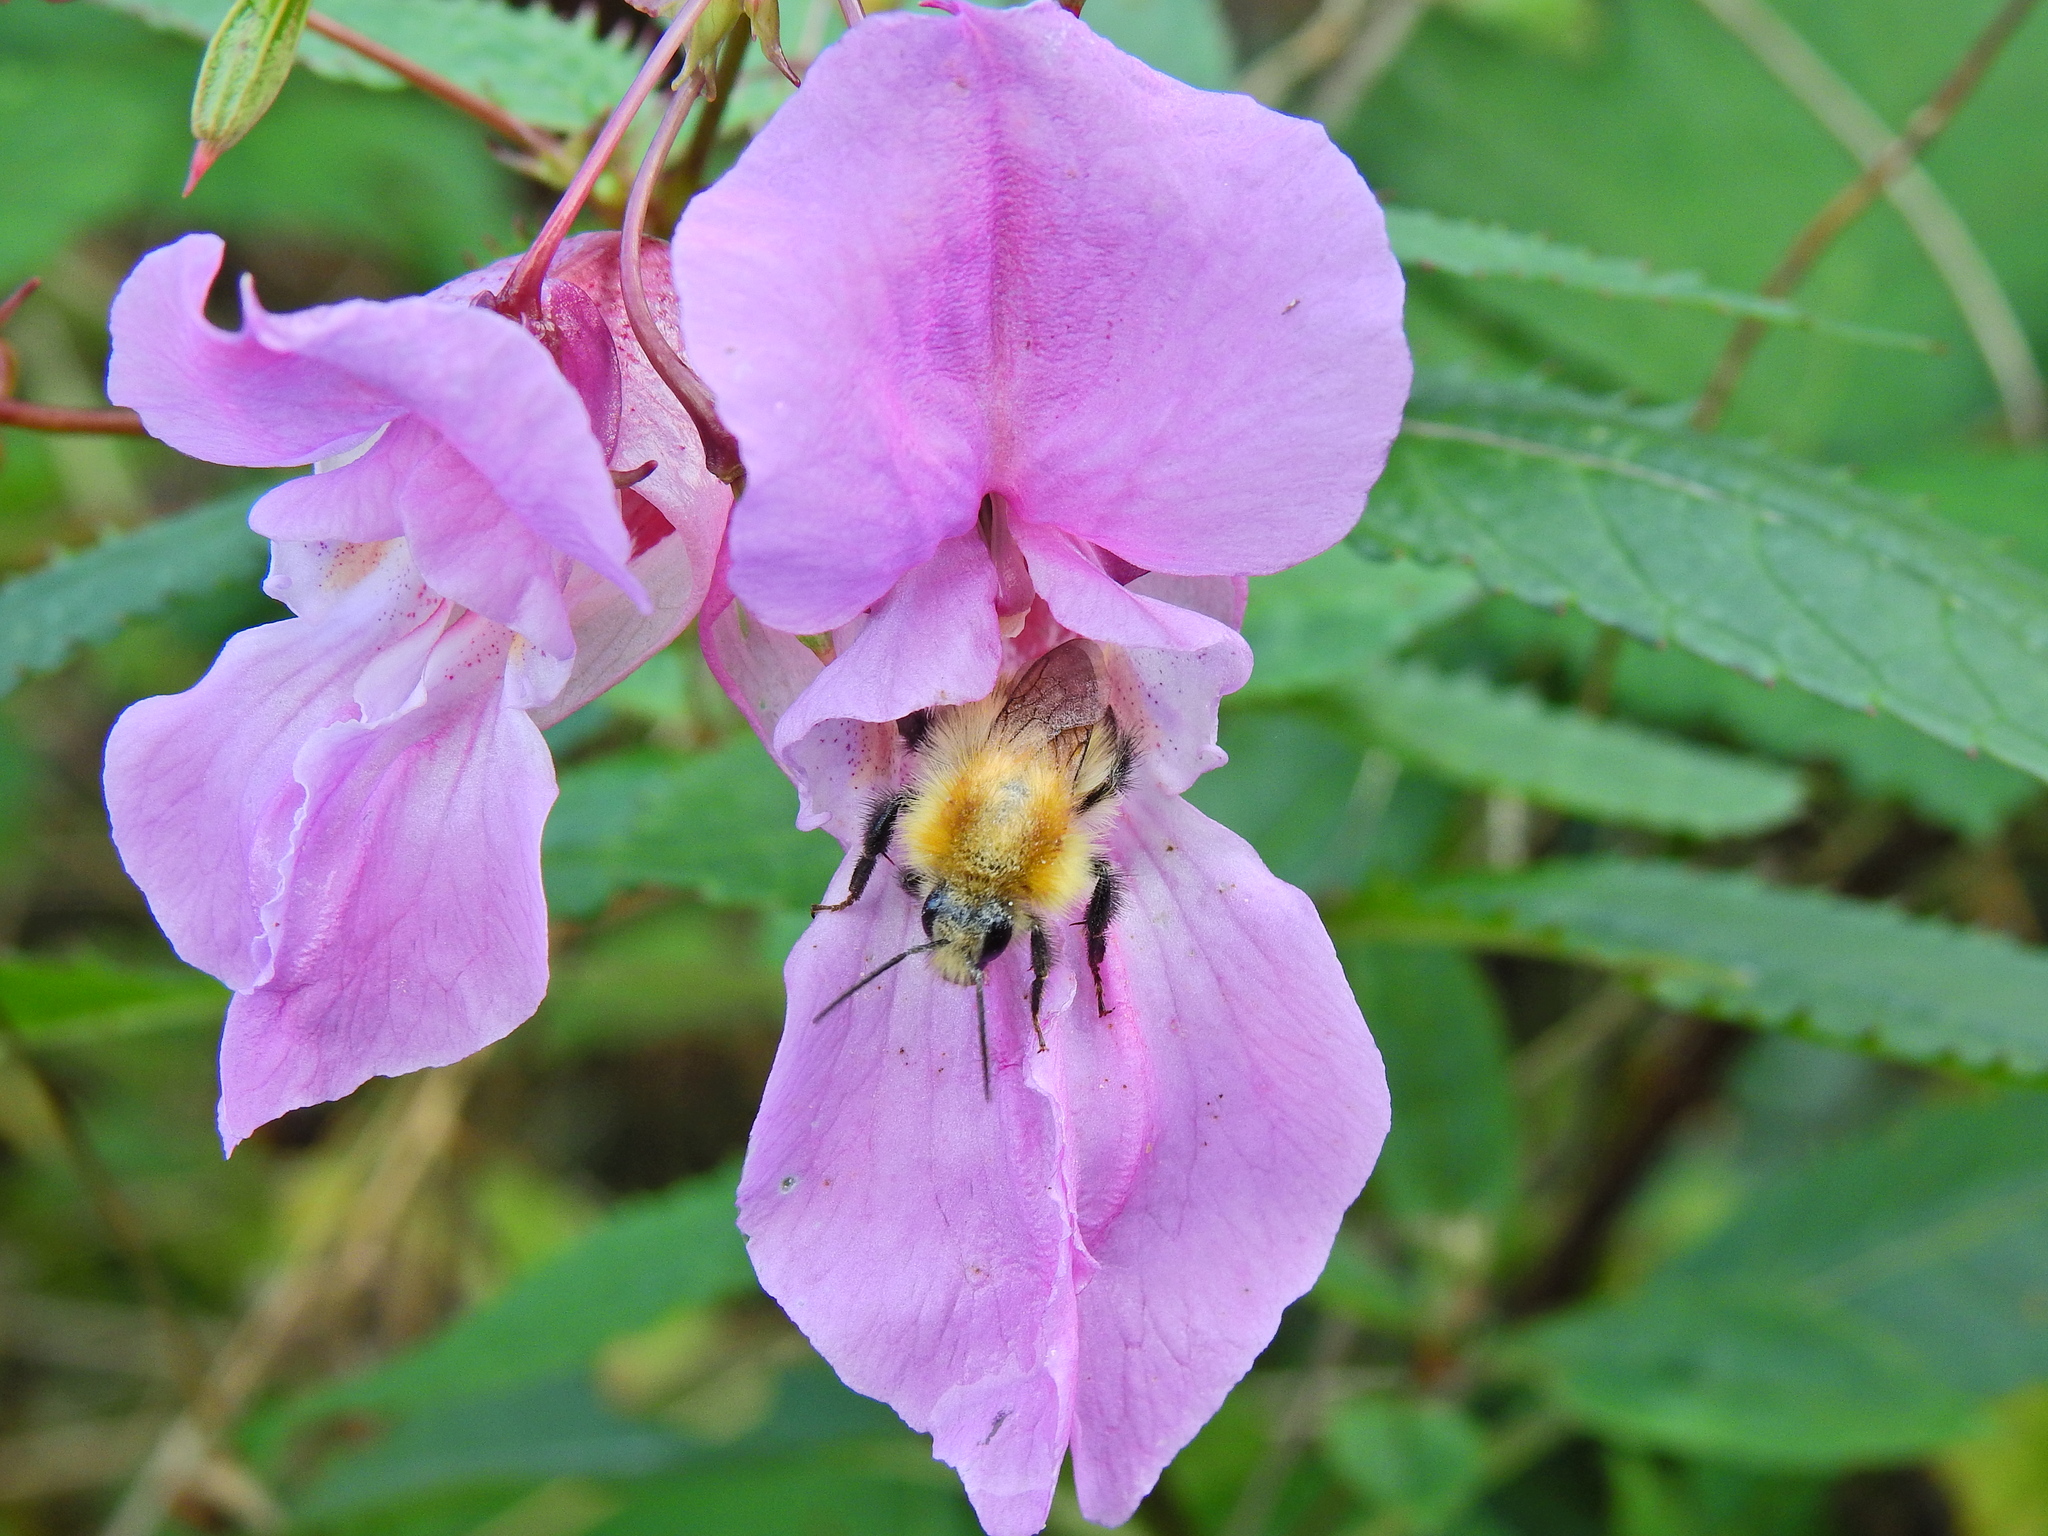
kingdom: Animalia
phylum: Arthropoda
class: Insecta
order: Hymenoptera
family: Apidae
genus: Bombus
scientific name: Bombus pascuorum
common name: Common carder bee
